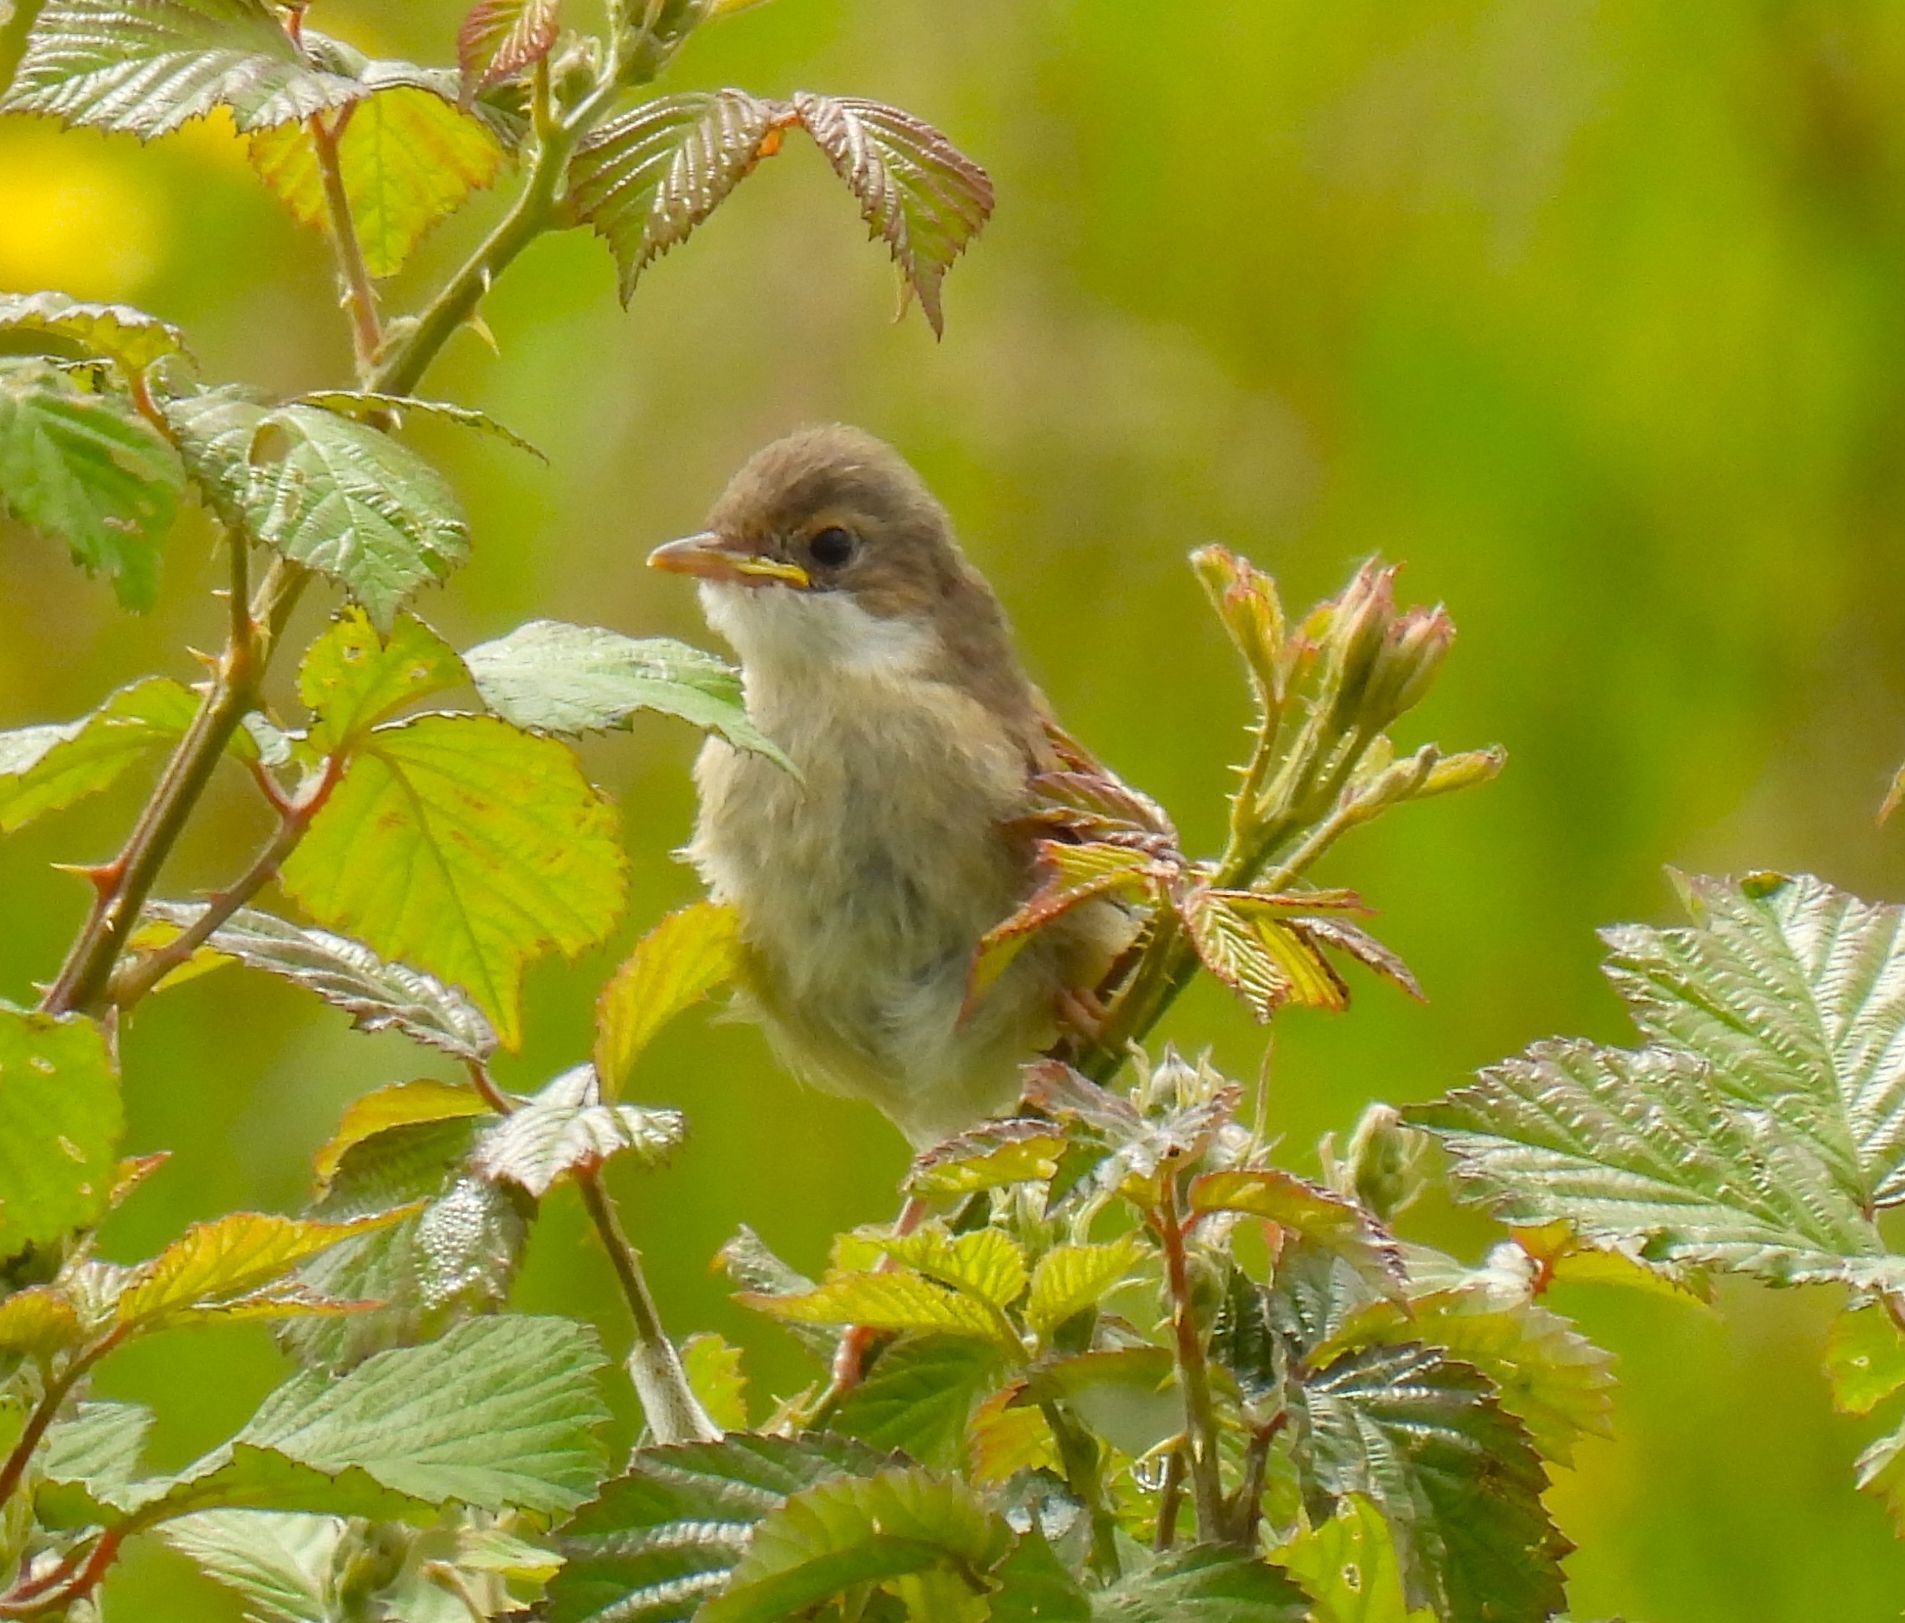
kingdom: Animalia
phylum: Chordata
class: Aves
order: Passeriformes
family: Sylviidae
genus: Sylvia
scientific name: Sylvia communis
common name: Common whitethroat
